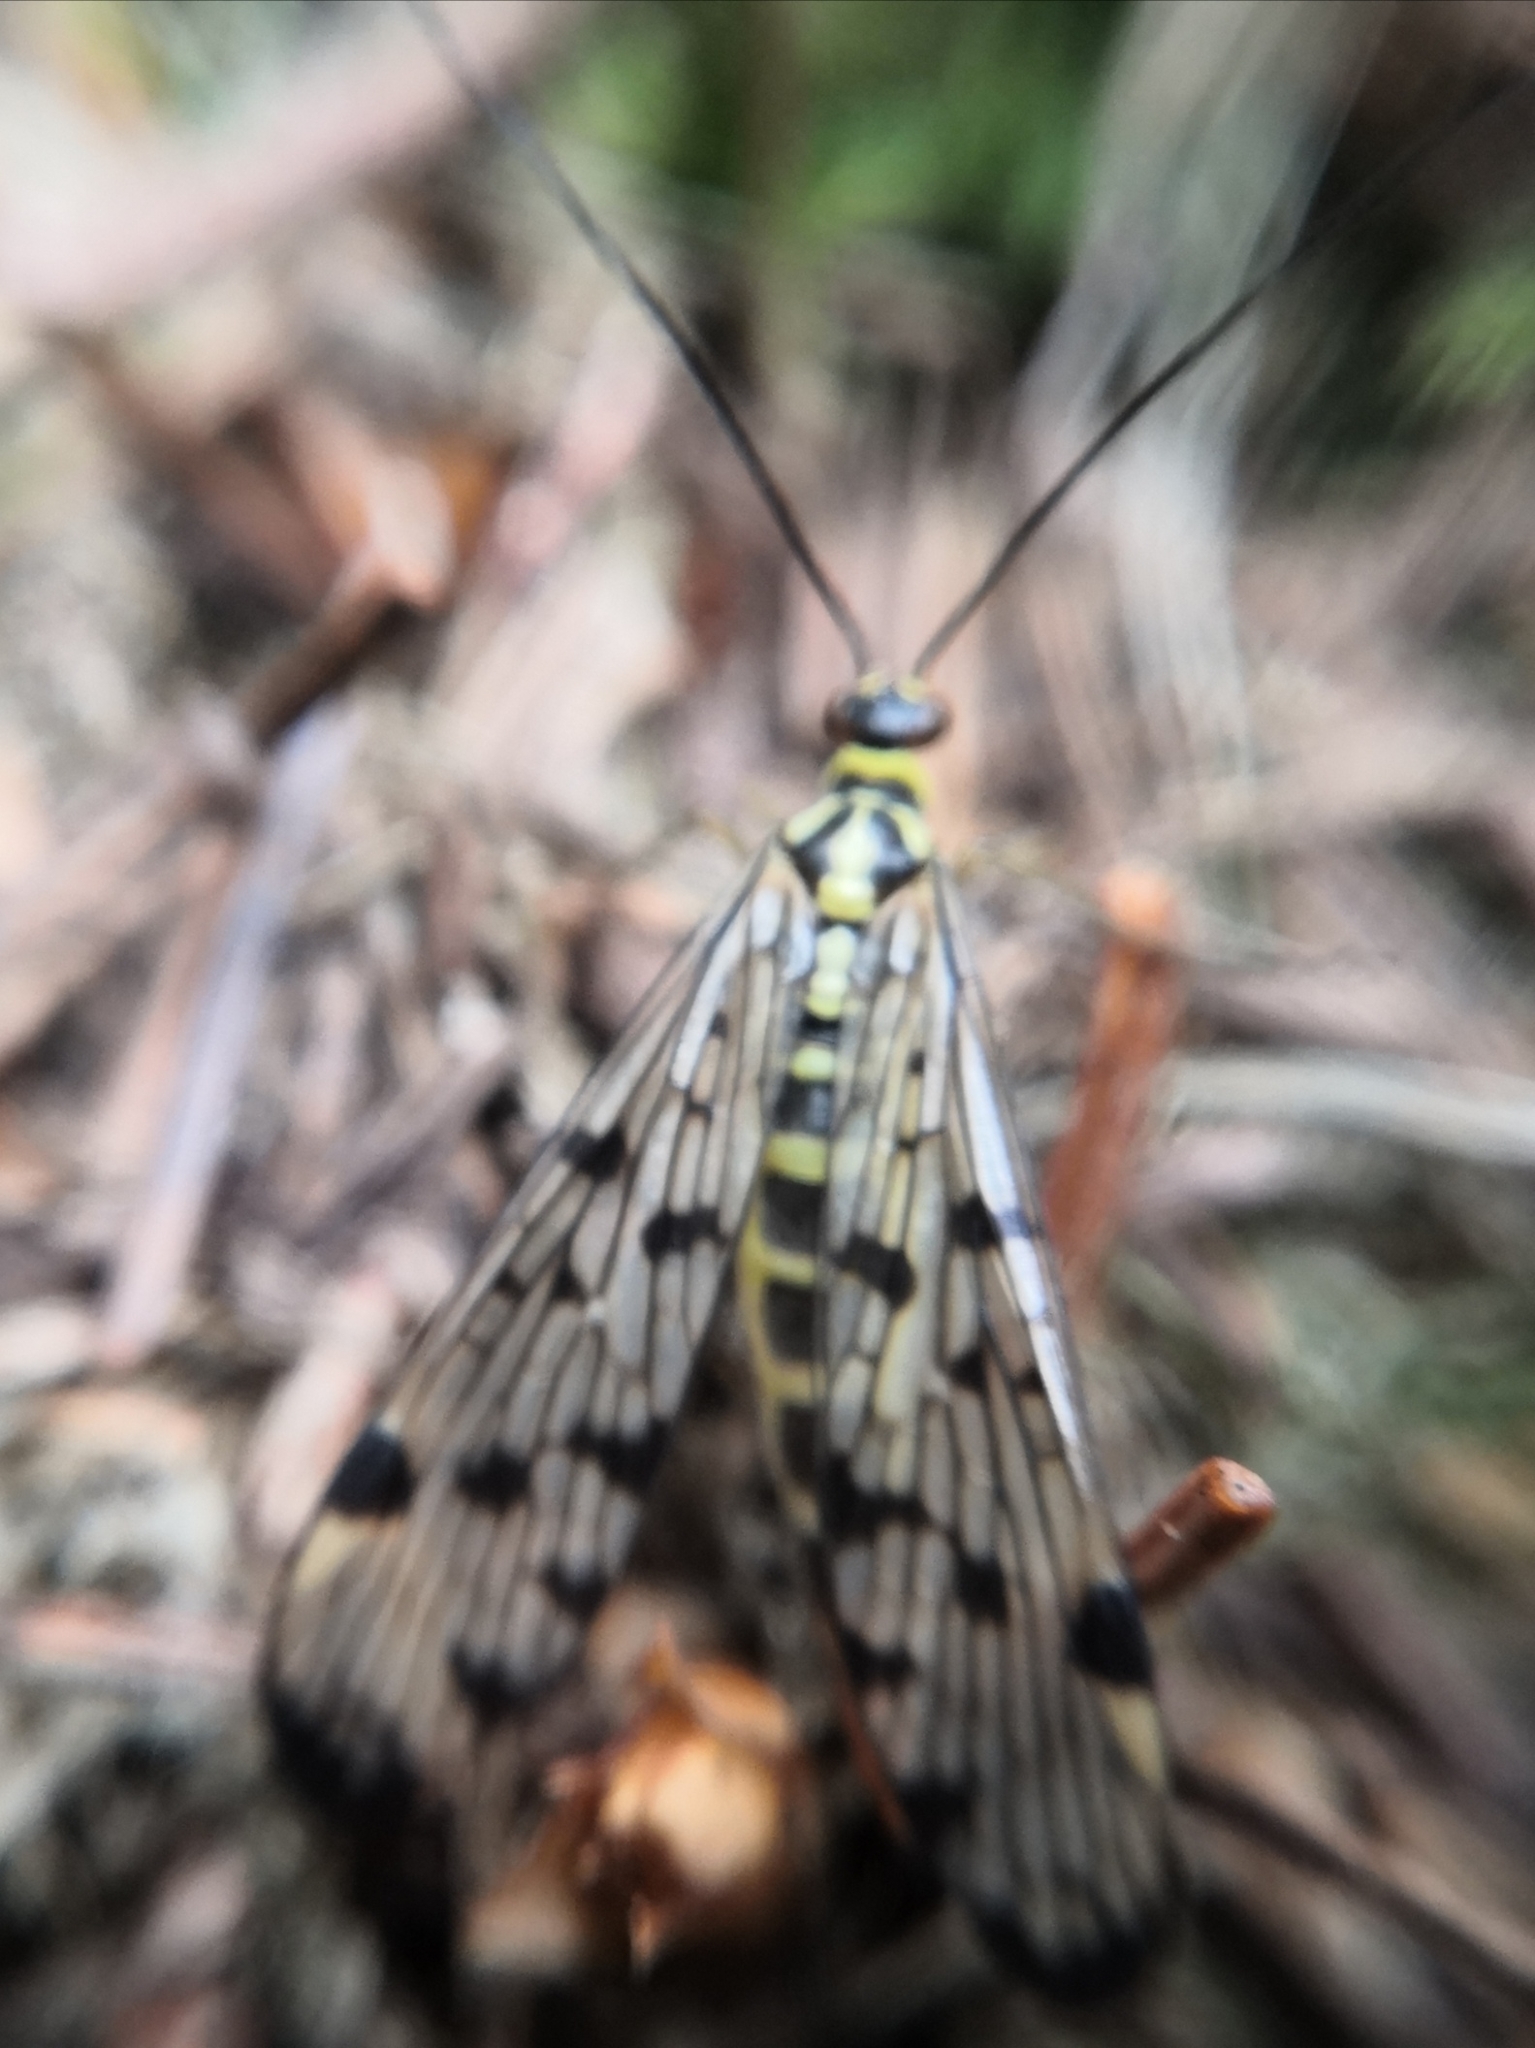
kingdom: Animalia
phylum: Arthropoda
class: Insecta
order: Mecoptera
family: Panorpidae
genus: Panorpa
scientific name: Panorpa communis
